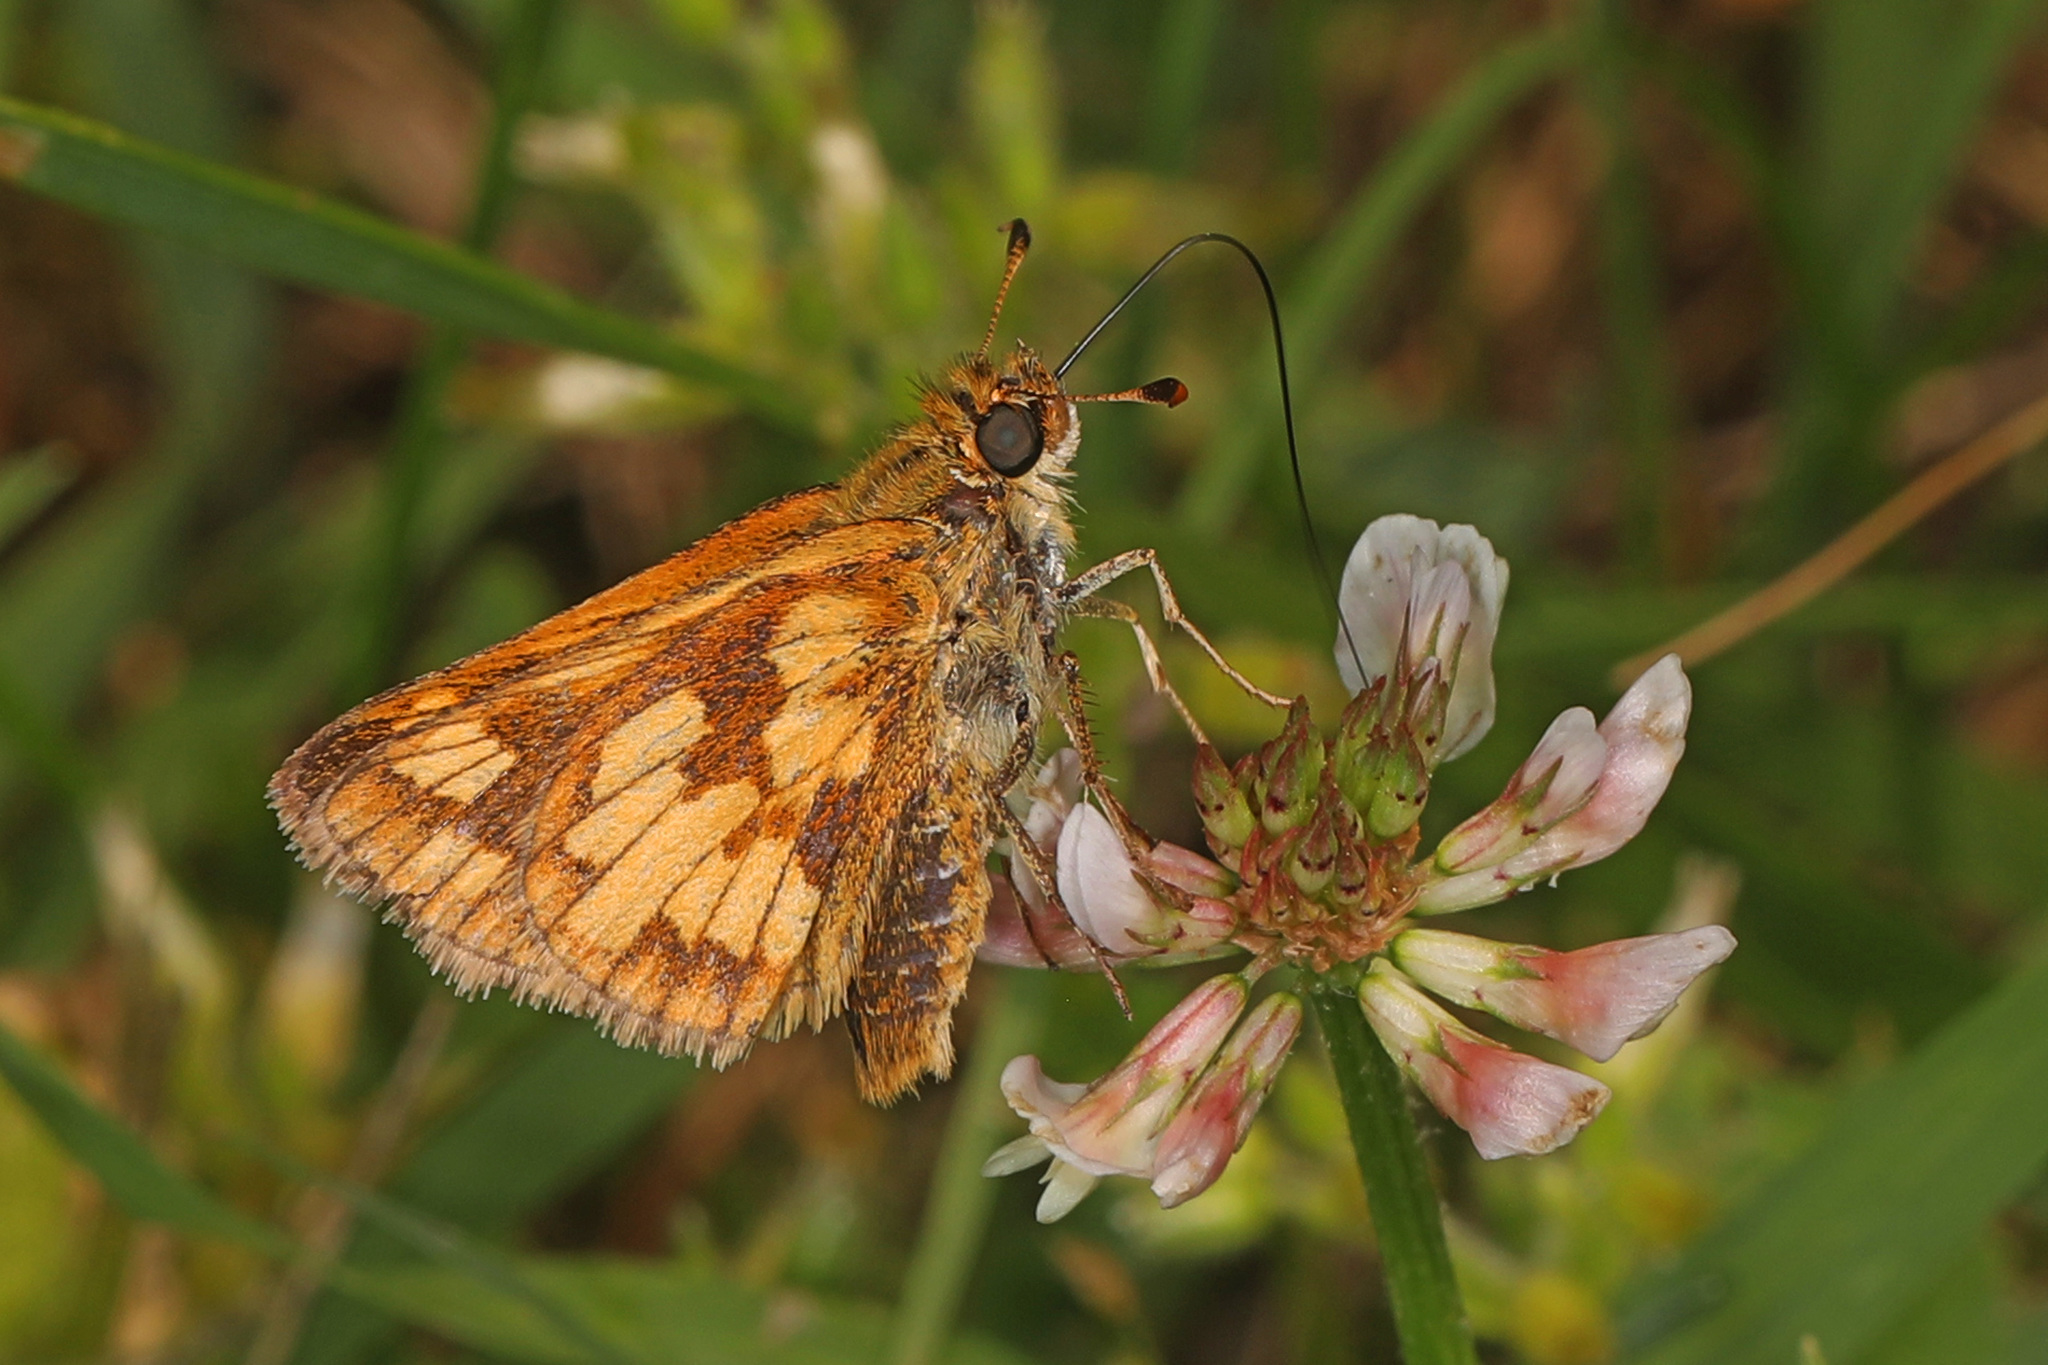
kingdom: Animalia
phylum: Arthropoda
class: Insecta
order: Lepidoptera
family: Hesperiidae
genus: Polites
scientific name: Polites coras
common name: Peck's skipper
